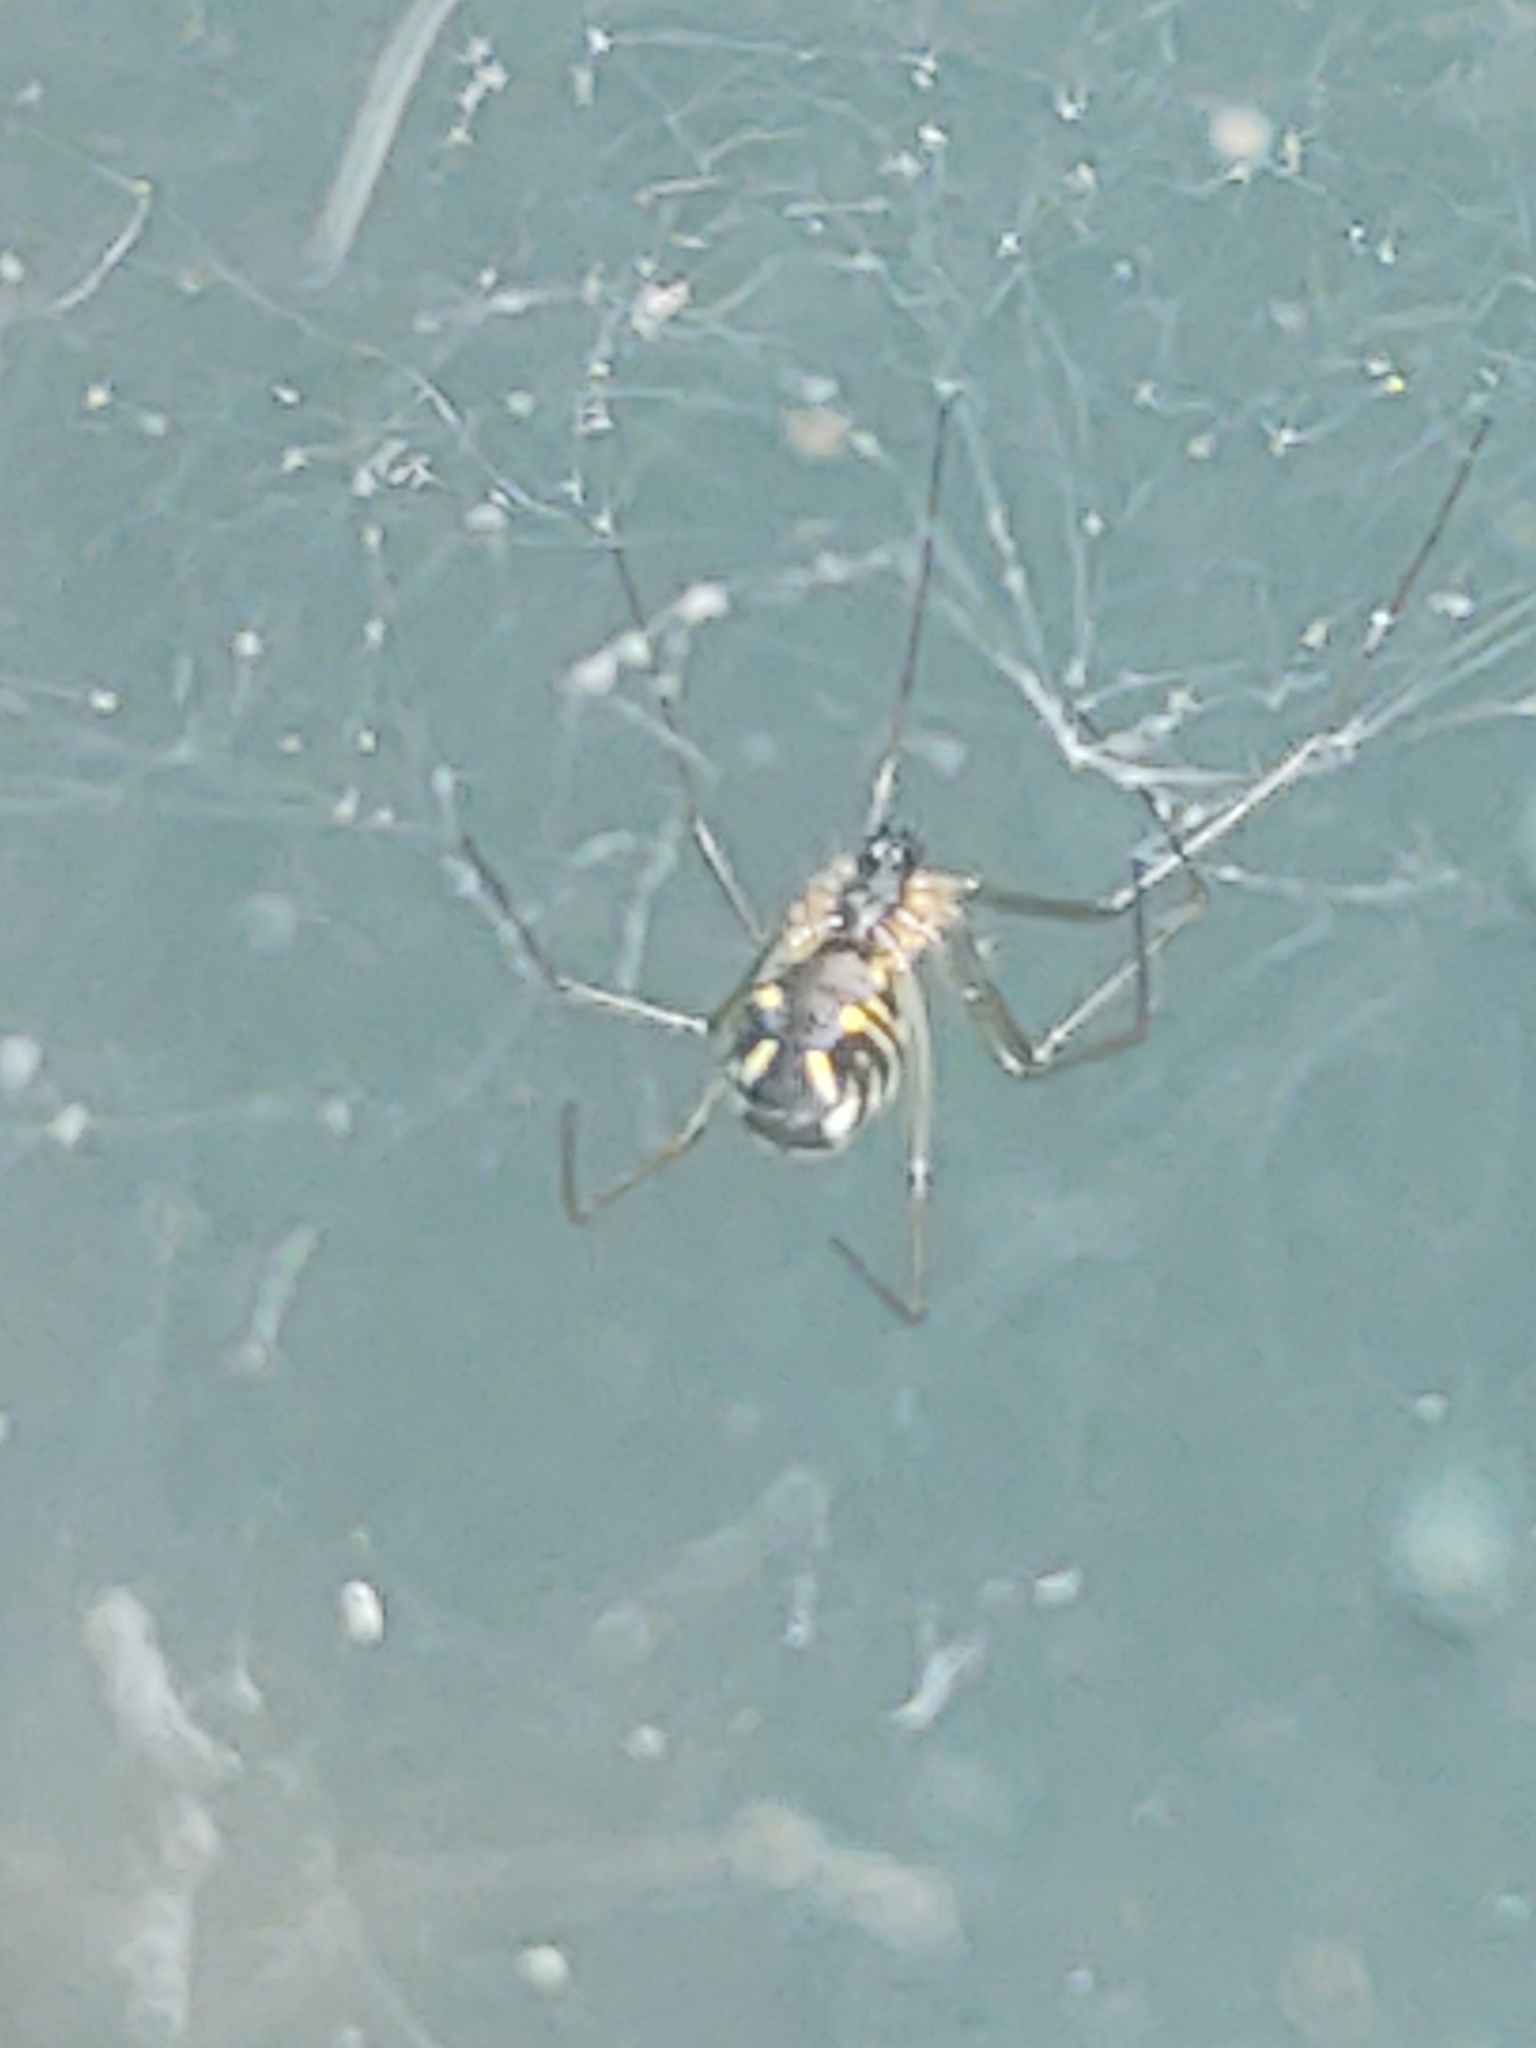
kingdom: Animalia
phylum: Arthropoda
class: Arachnida
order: Araneae
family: Linyphiidae
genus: Neriene
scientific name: Neriene radiata
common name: Filmy dome spider
